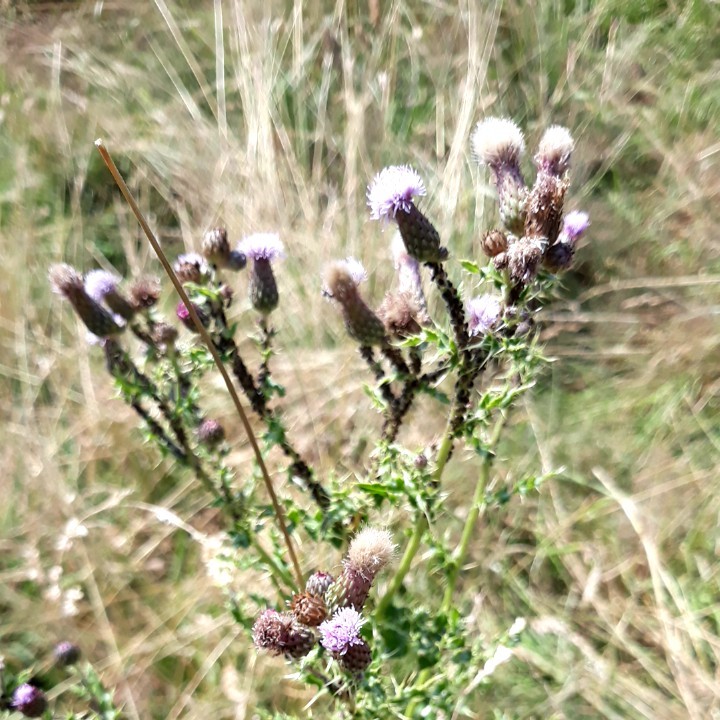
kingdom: Plantae
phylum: Tracheophyta
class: Magnoliopsida
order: Asterales
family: Asteraceae
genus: Cirsium
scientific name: Cirsium arvense
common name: Creeping thistle
